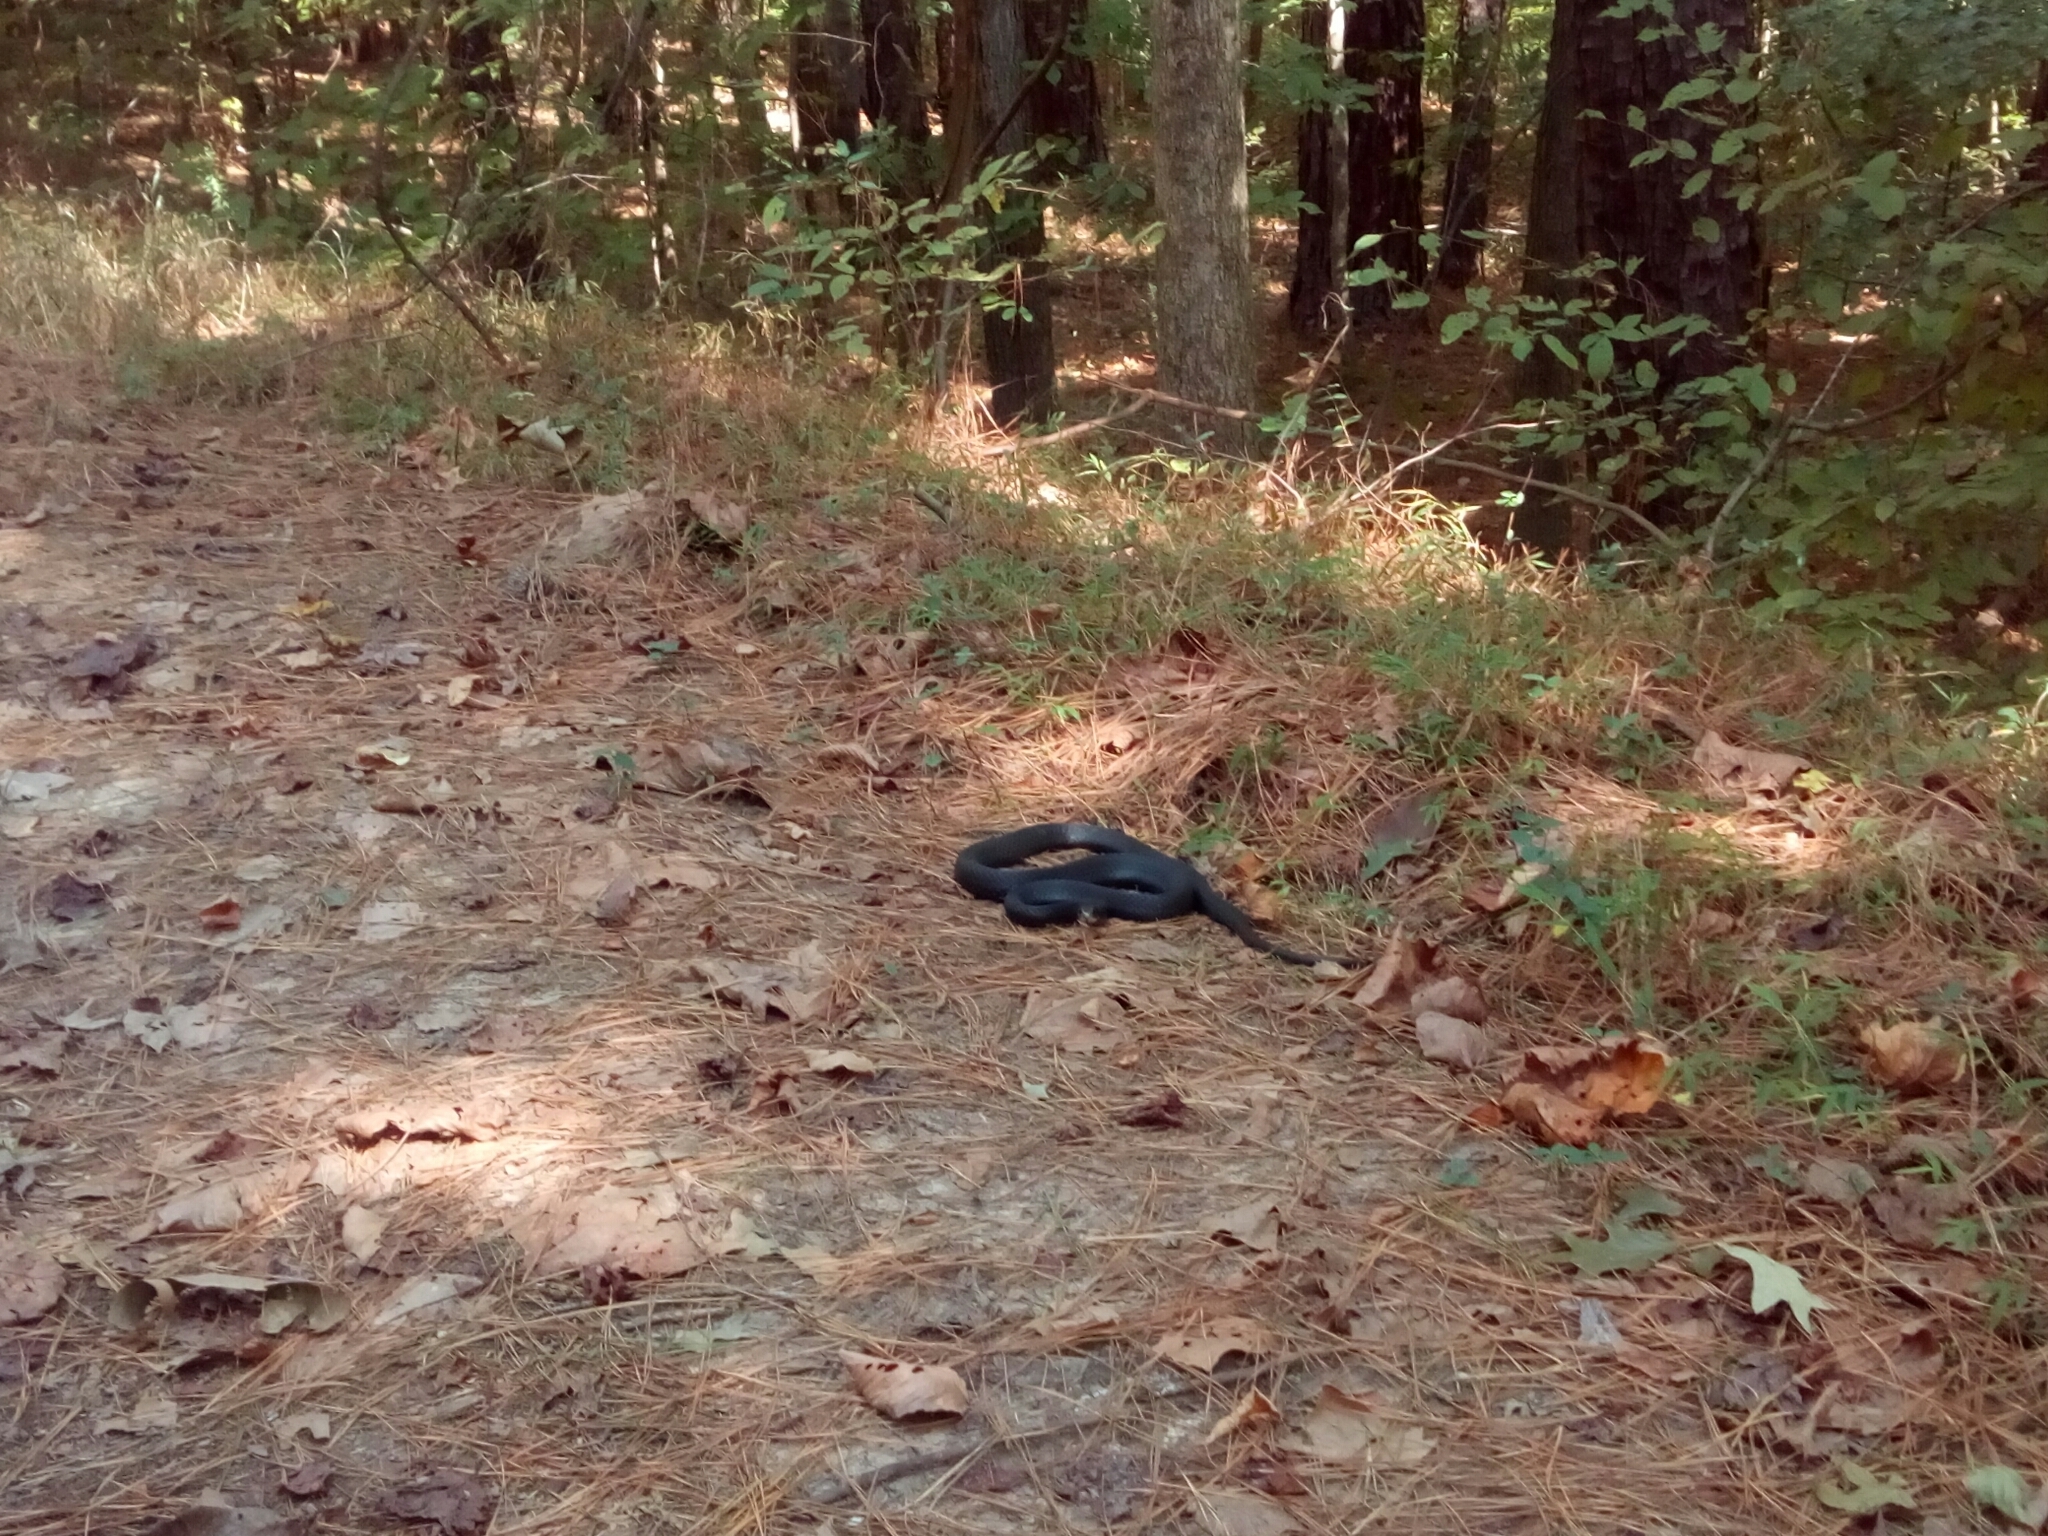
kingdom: Animalia
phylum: Chordata
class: Squamata
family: Colubridae
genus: Coluber
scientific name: Coluber constrictor
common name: Eastern racer
